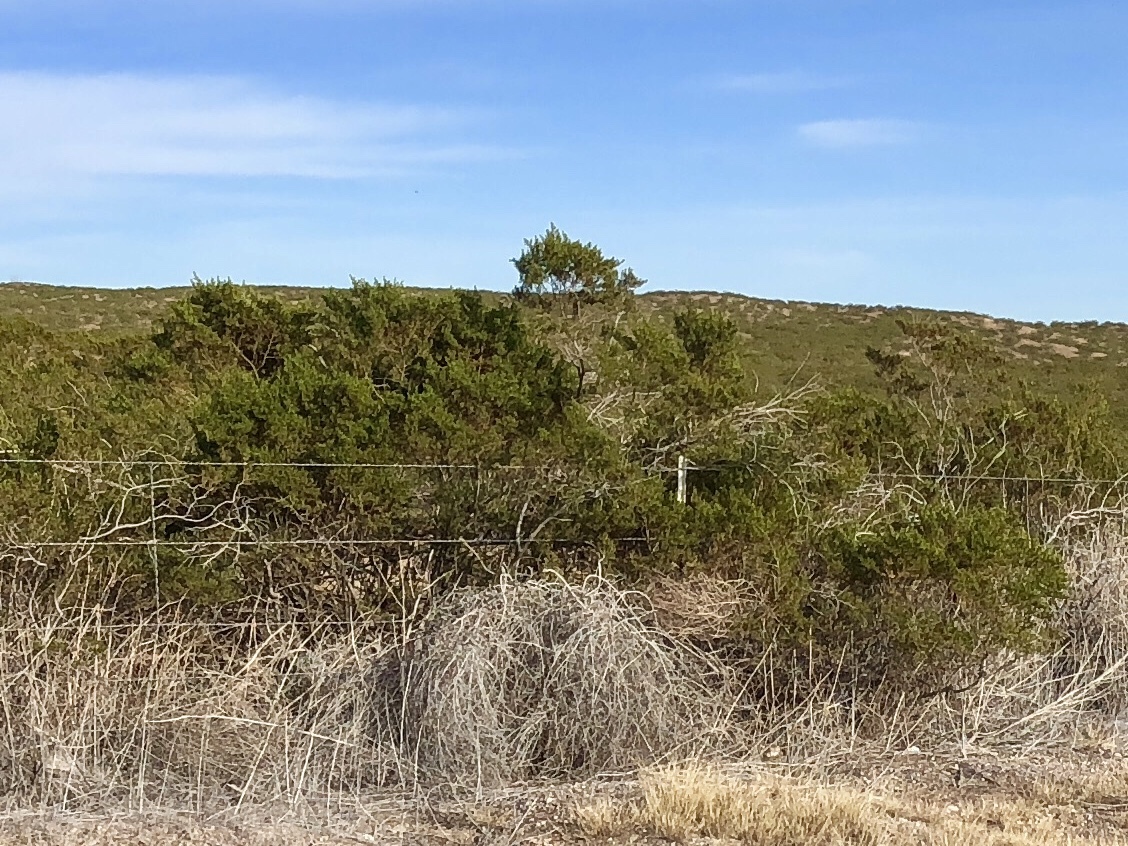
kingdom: Plantae
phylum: Tracheophyta
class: Magnoliopsida
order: Zygophyllales
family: Zygophyllaceae
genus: Larrea
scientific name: Larrea tridentata
